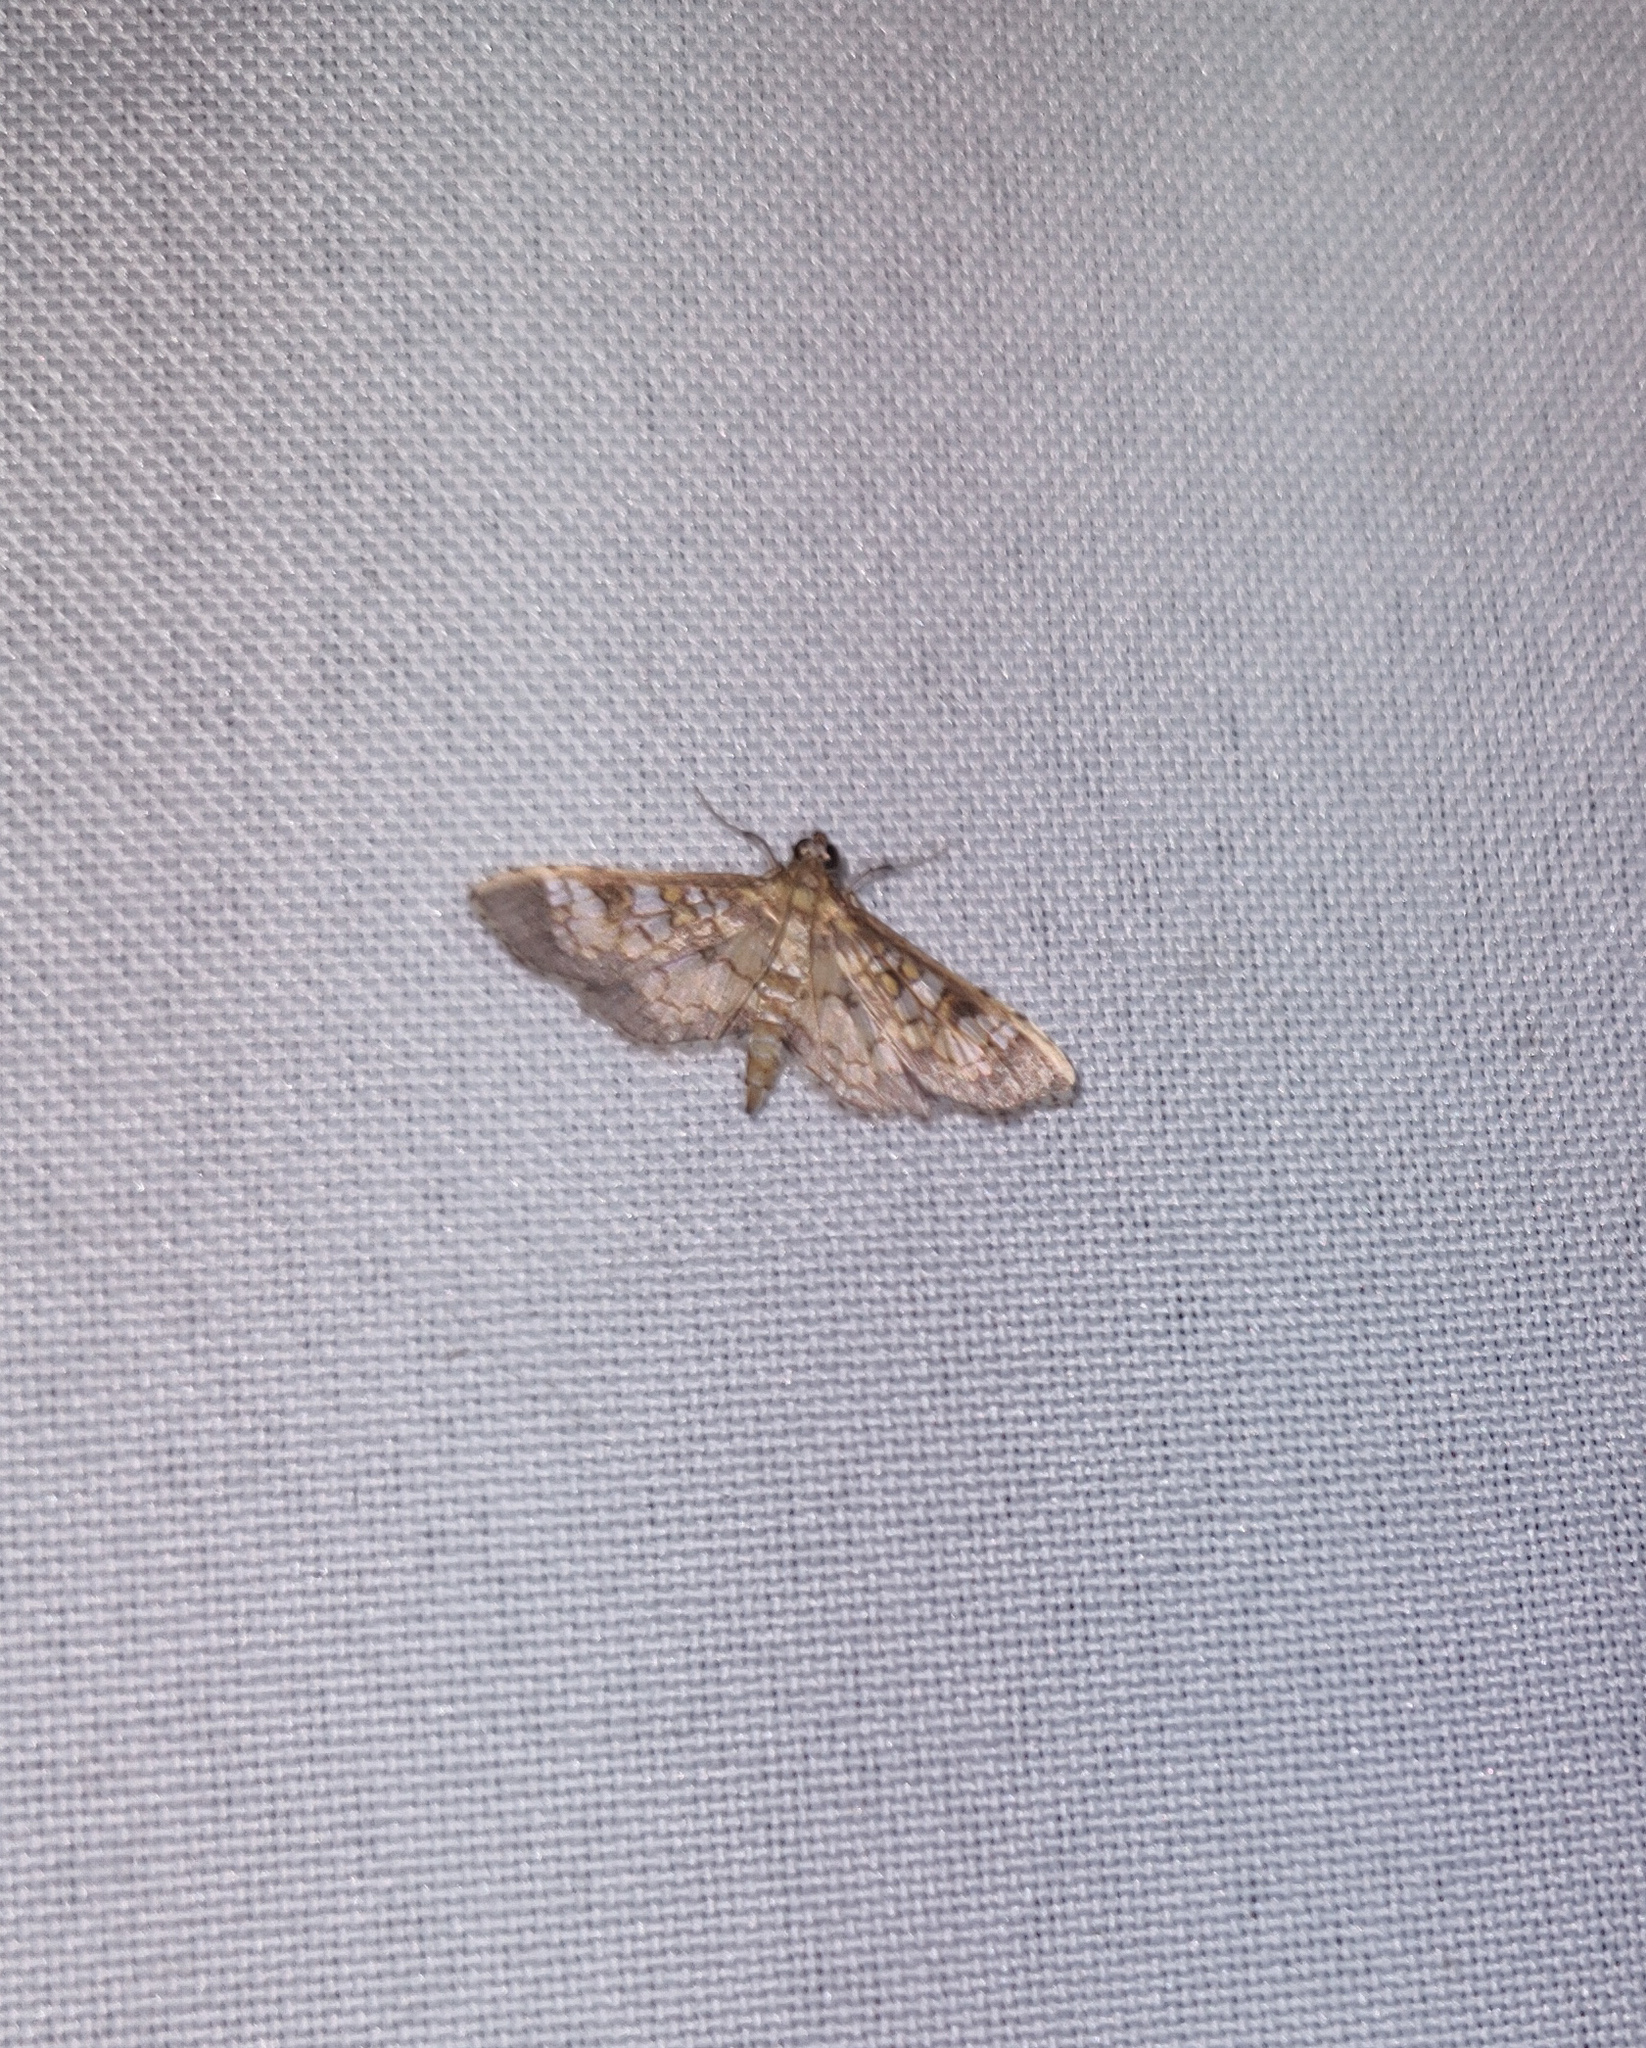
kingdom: Animalia
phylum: Arthropoda
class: Insecta
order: Lepidoptera
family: Crambidae
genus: Samea
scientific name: Samea ecclesialis
